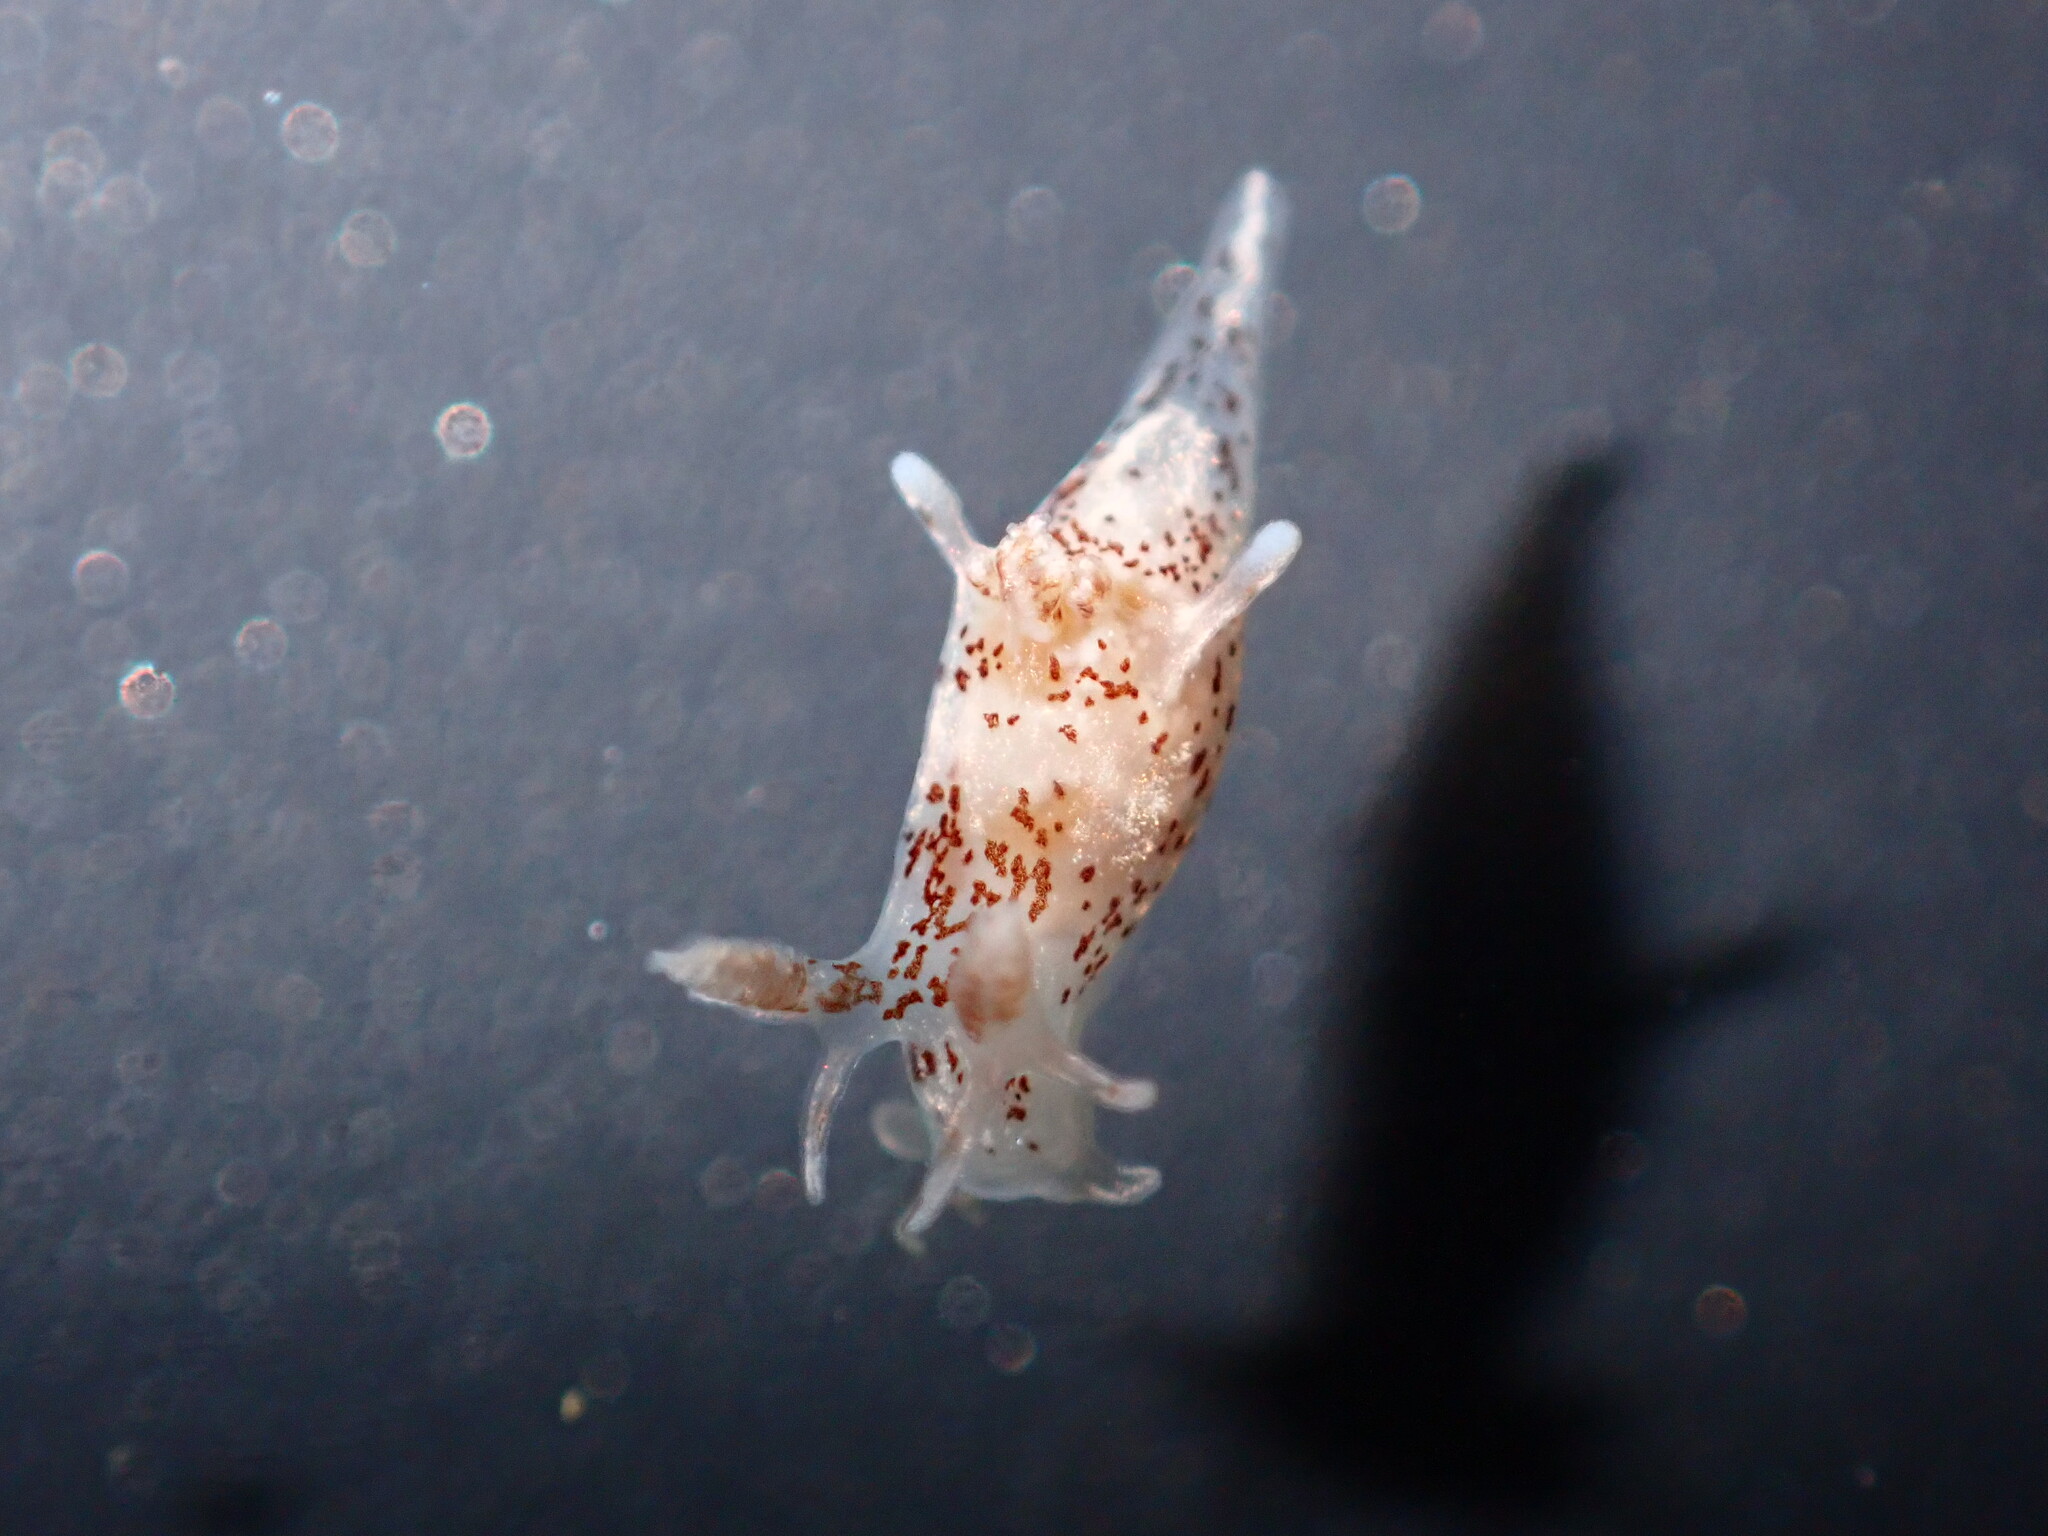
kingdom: Animalia
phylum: Mollusca
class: Gastropoda
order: Nudibranchia
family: Goniodorididae
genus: Ancula
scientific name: Ancula mapae
